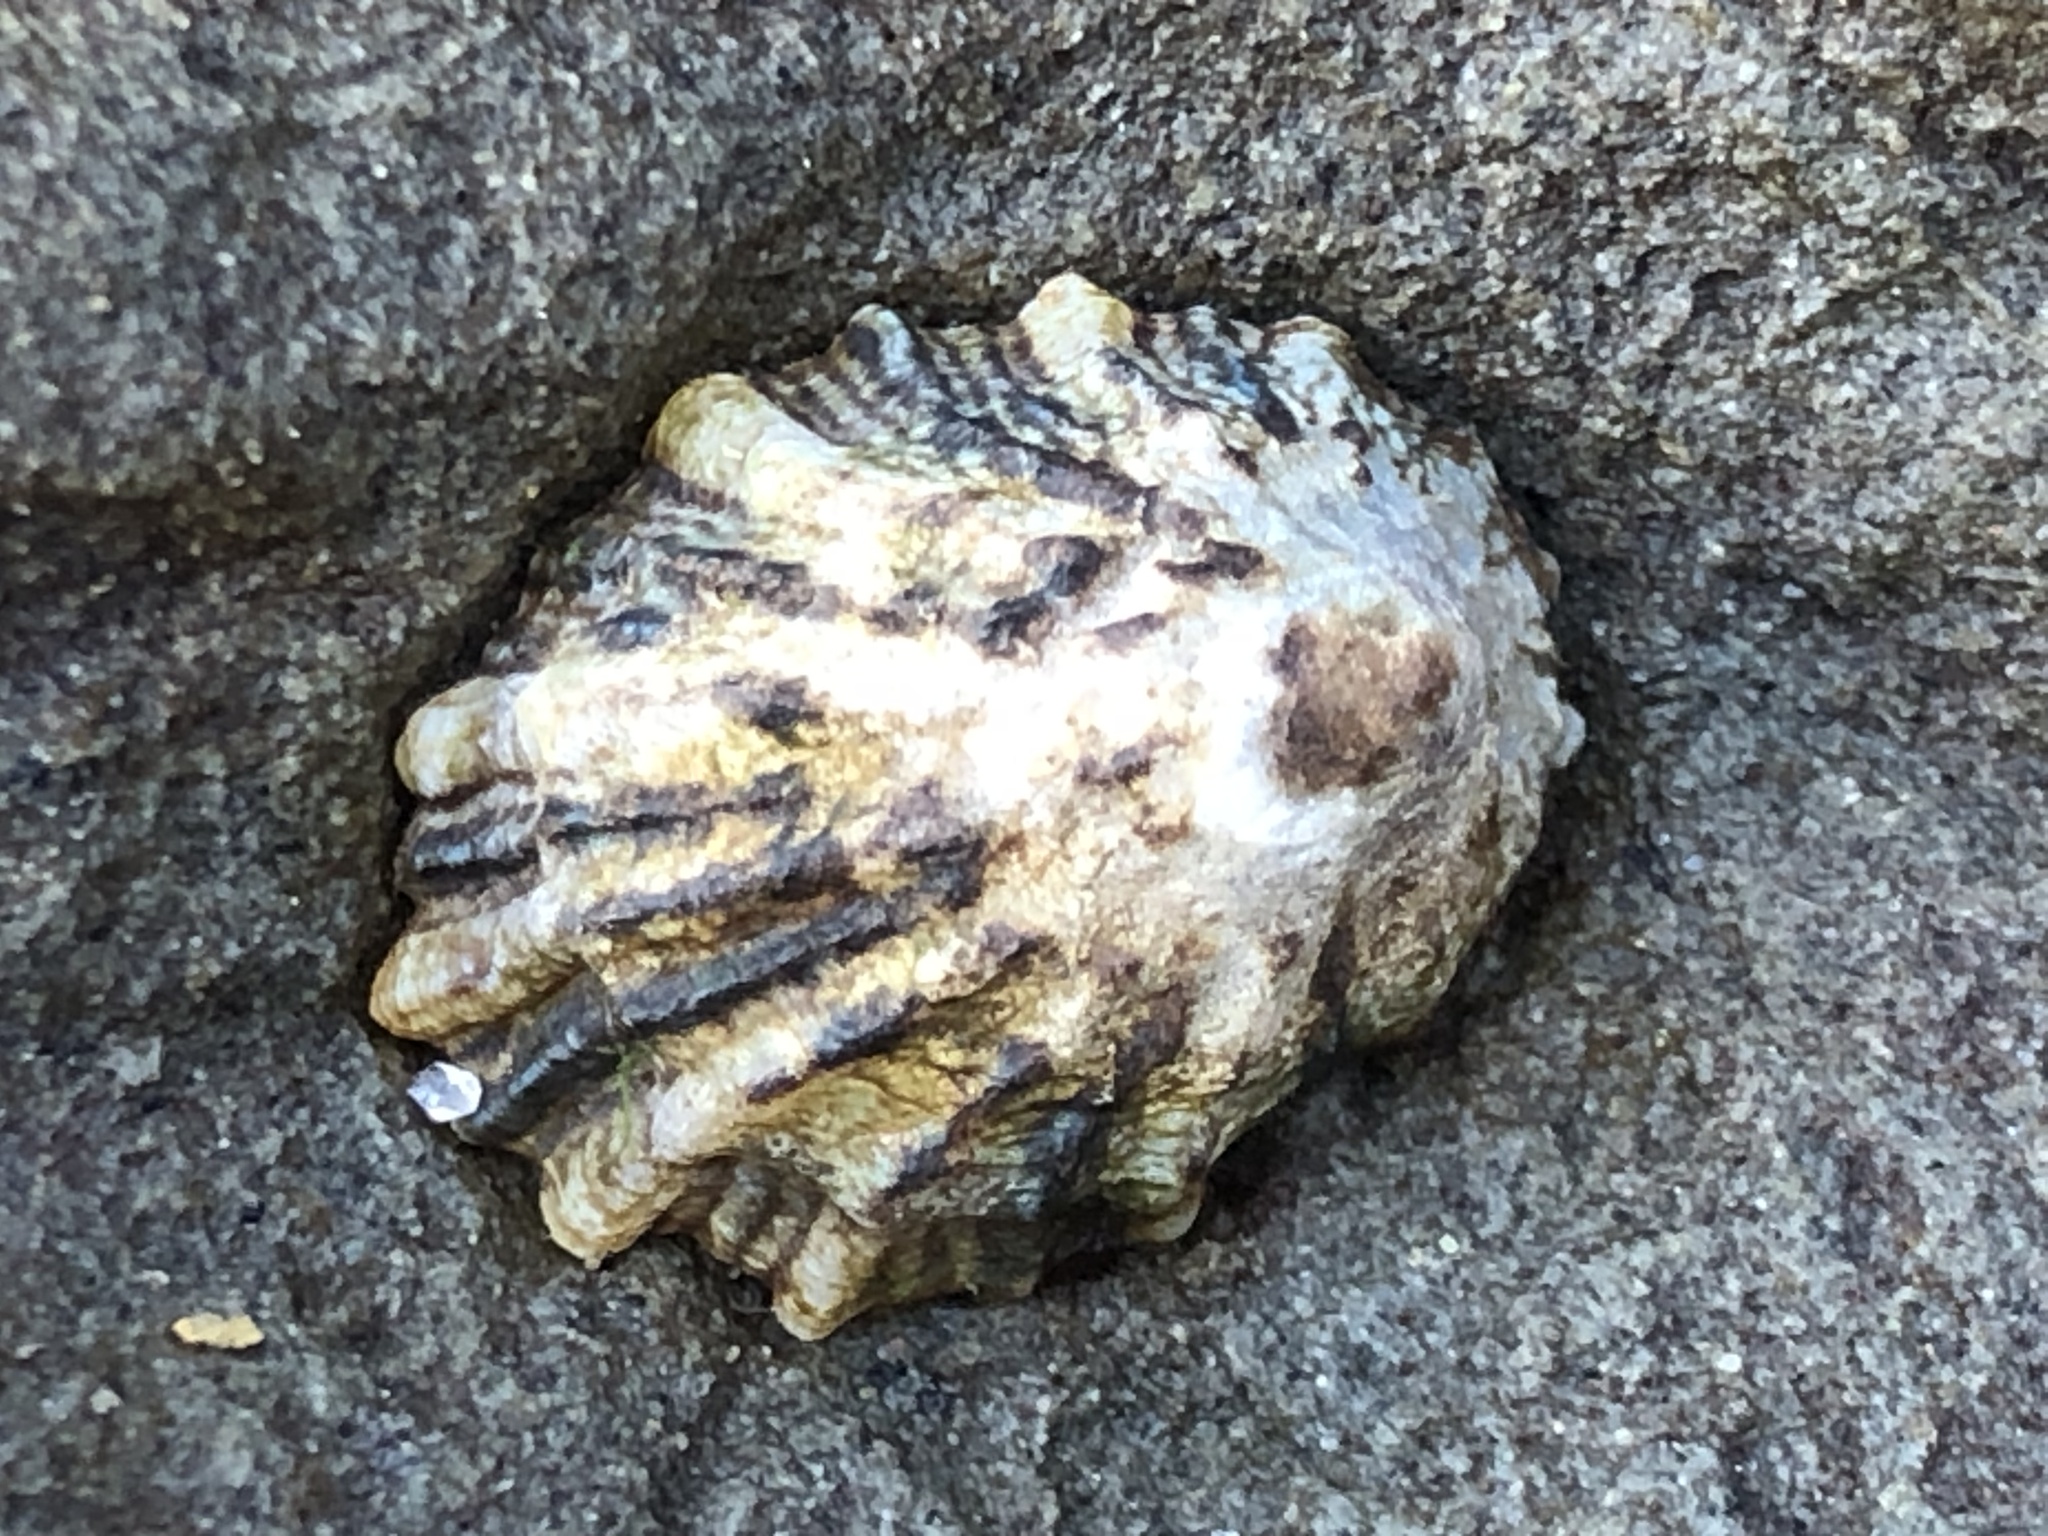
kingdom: Animalia
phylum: Mollusca
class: Gastropoda
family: Lottiidae
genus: Lottia
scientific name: Lottia scabra
